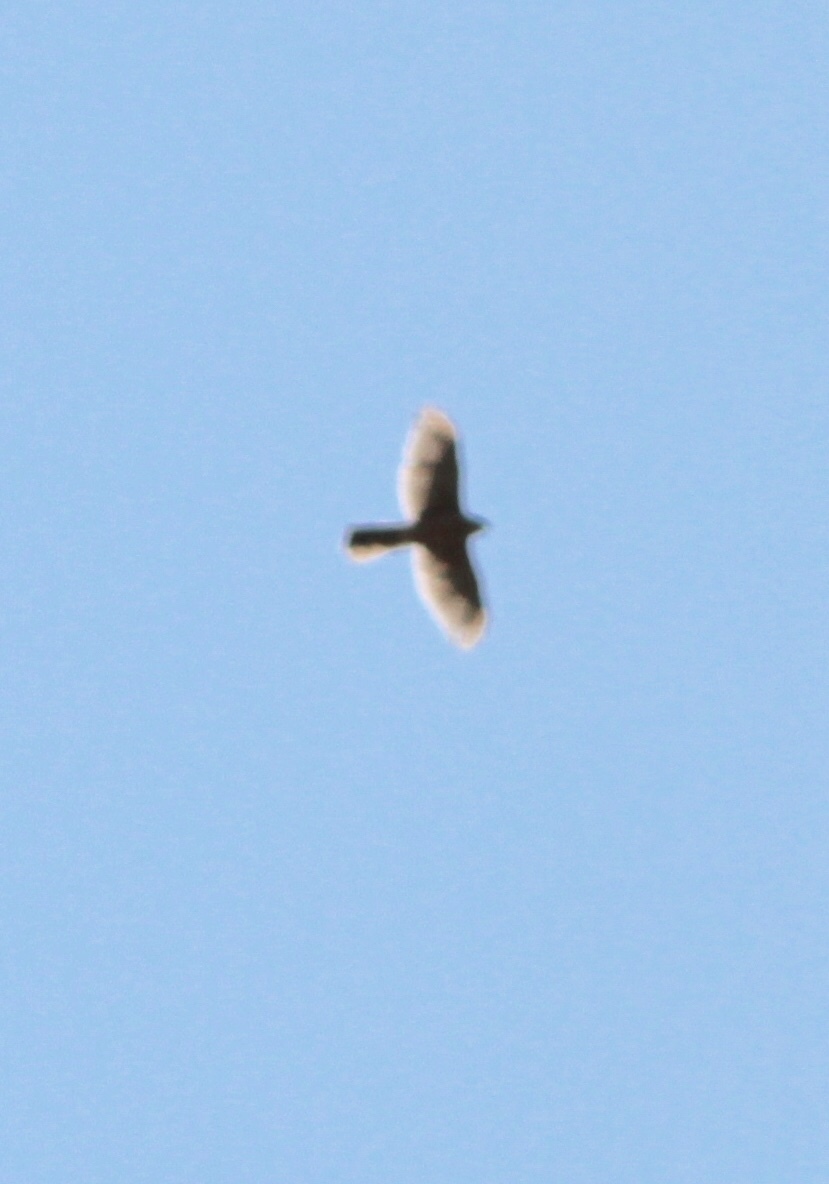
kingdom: Animalia
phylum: Chordata
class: Aves
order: Accipitriformes
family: Accipitridae
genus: Accipiter
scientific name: Accipiter cooperii
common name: Cooper's hawk
